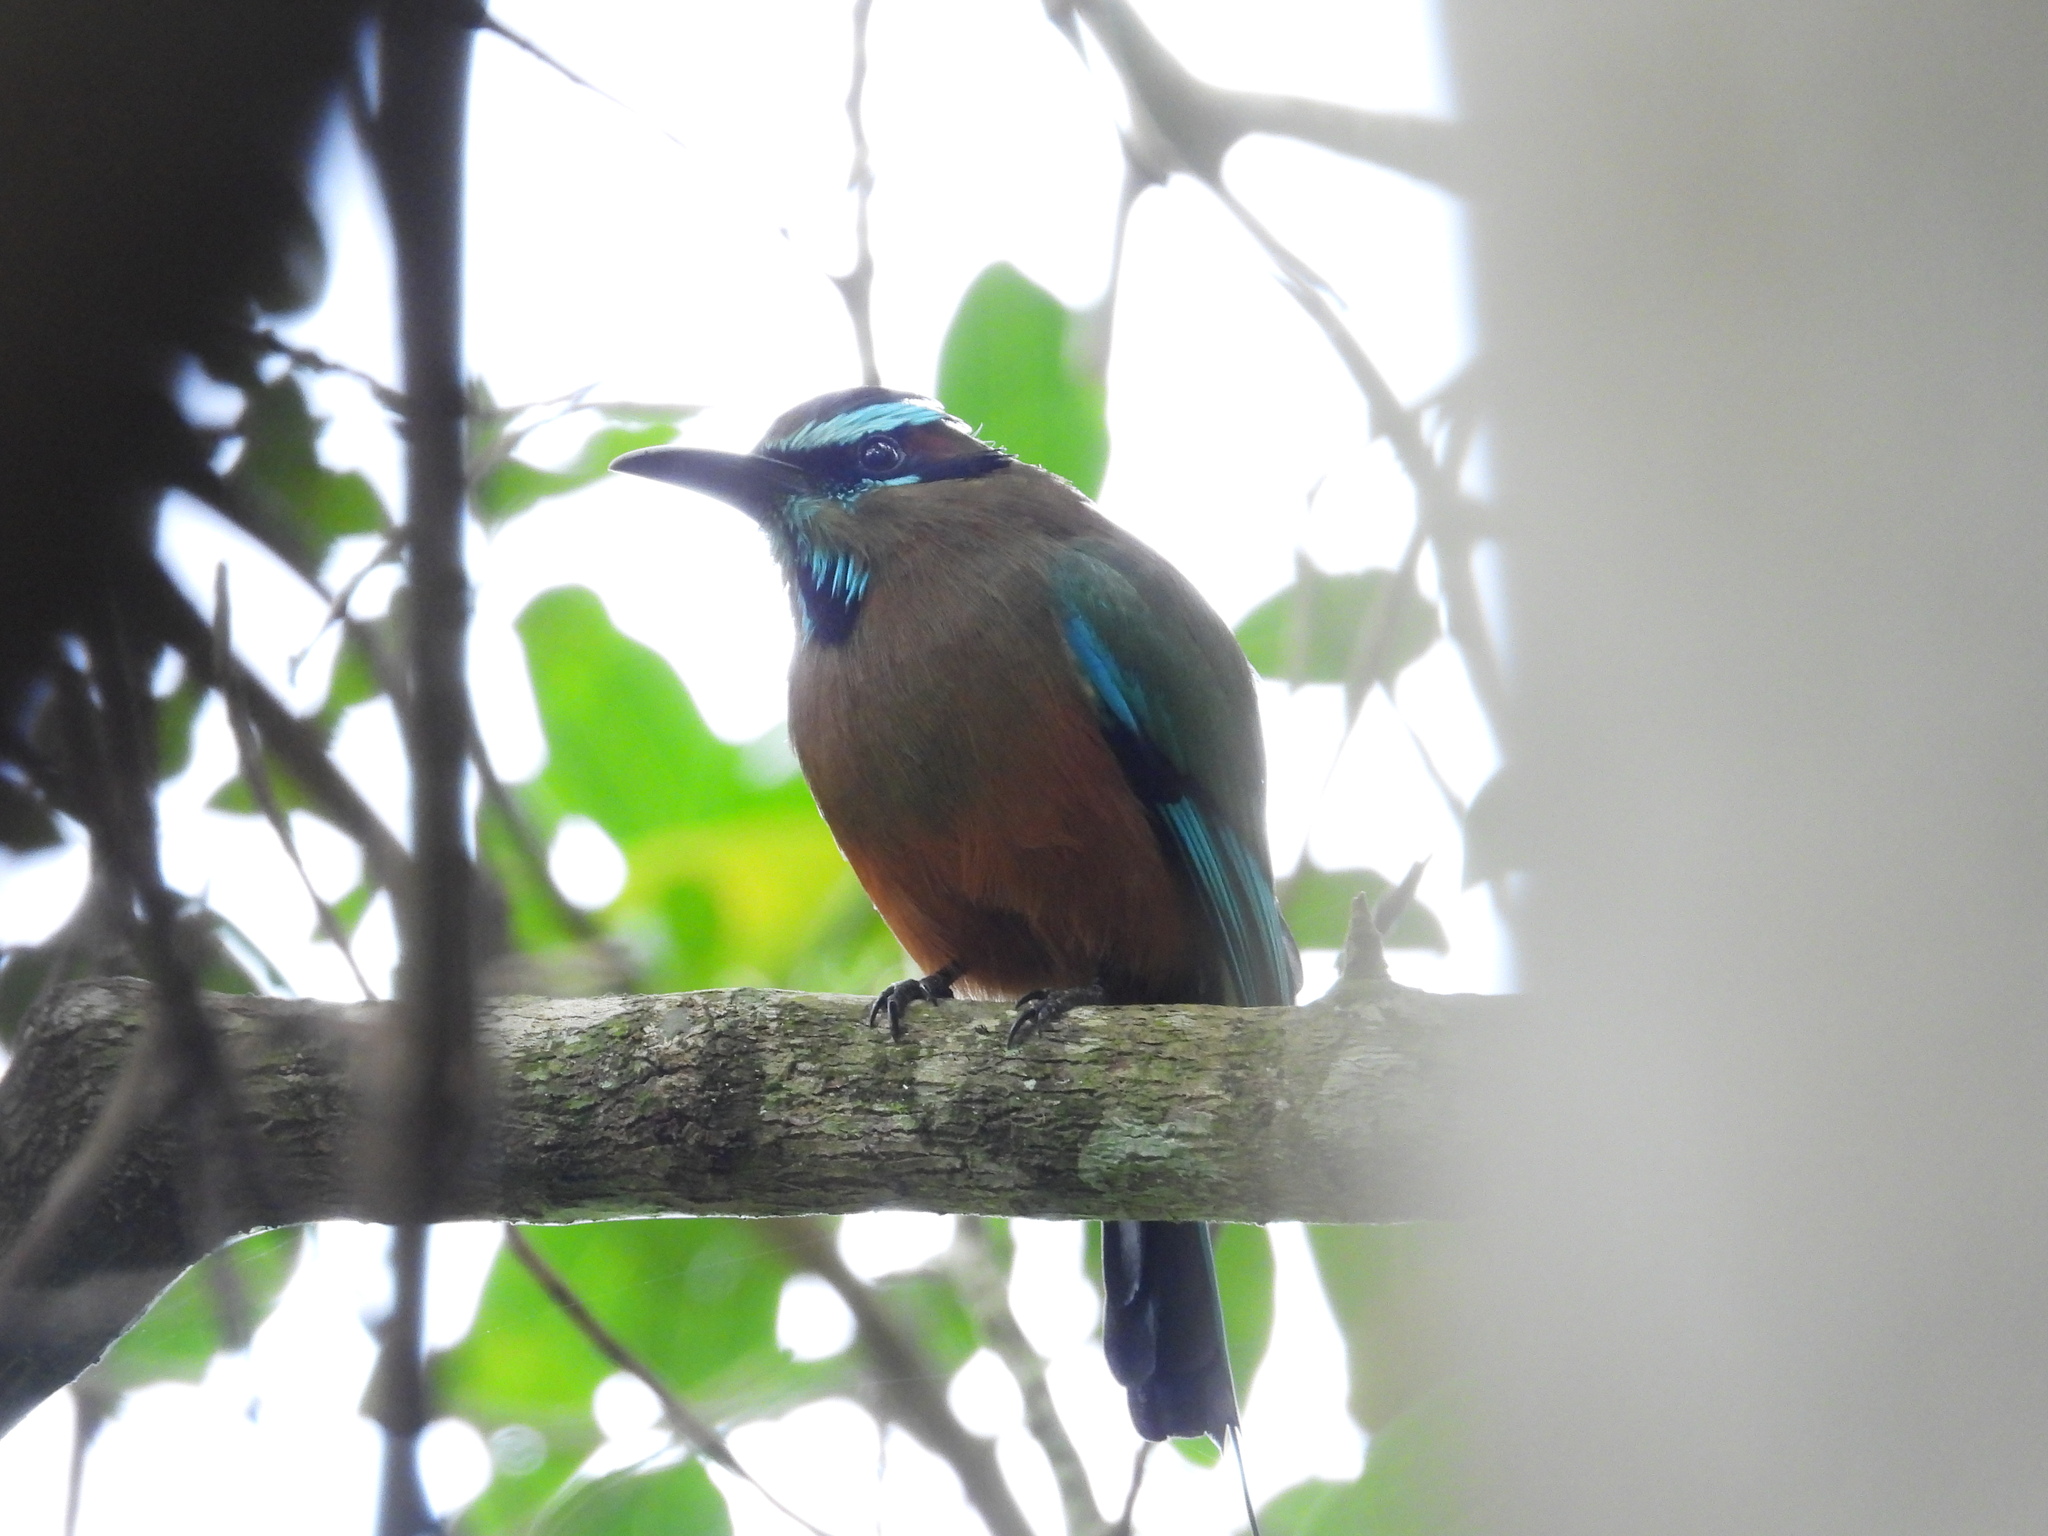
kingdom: Animalia
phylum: Chordata
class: Aves
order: Coraciiformes
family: Momotidae
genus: Eumomota
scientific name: Eumomota superciliosa
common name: Turquoise-browed motmot
